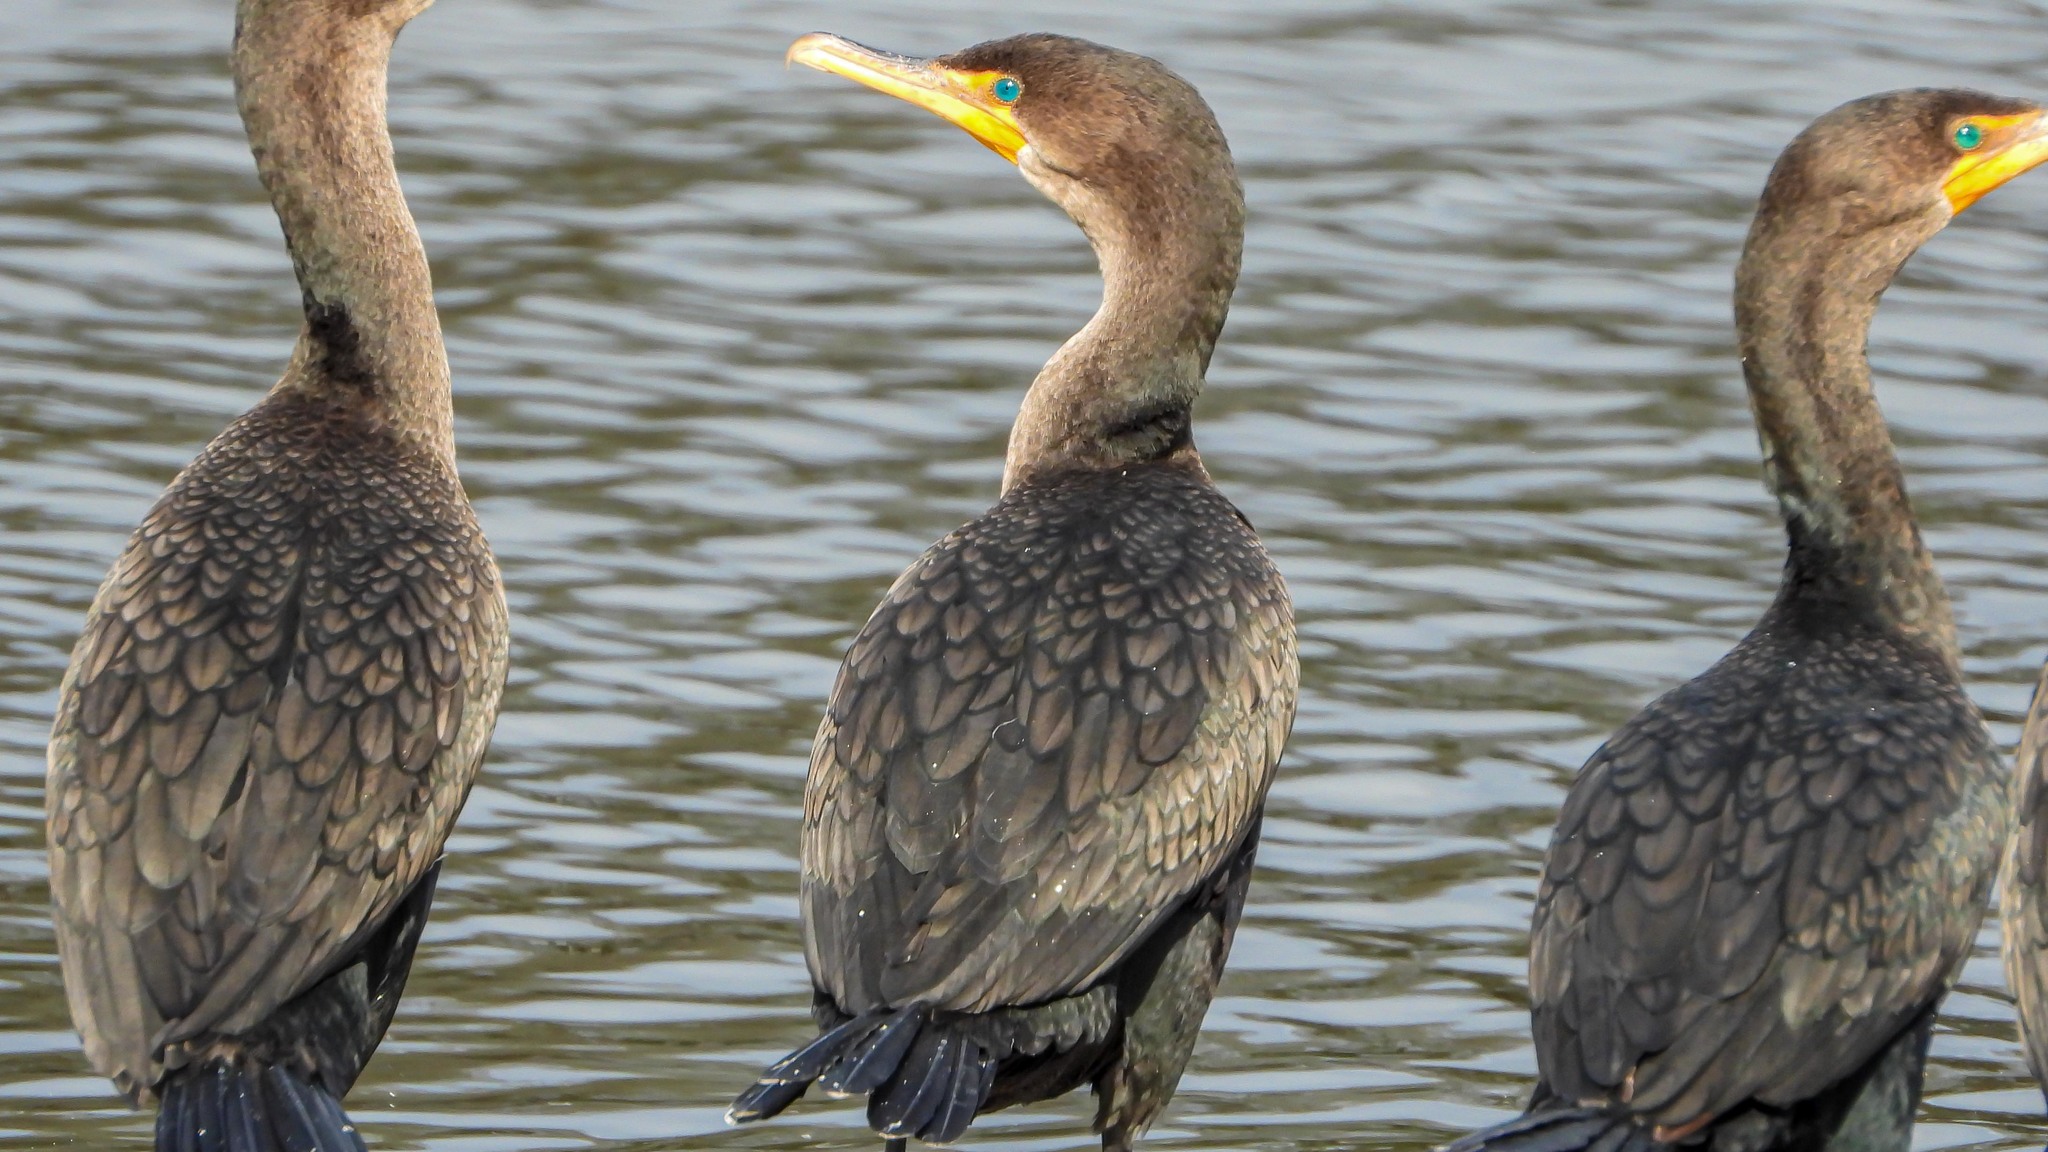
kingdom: Animalia
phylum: Chordata
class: Aves
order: Suliformes
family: Phalacrocoracidae
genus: Phalacrocorax
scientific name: Phalacrocorax auritus
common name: Double-crested cormorant
